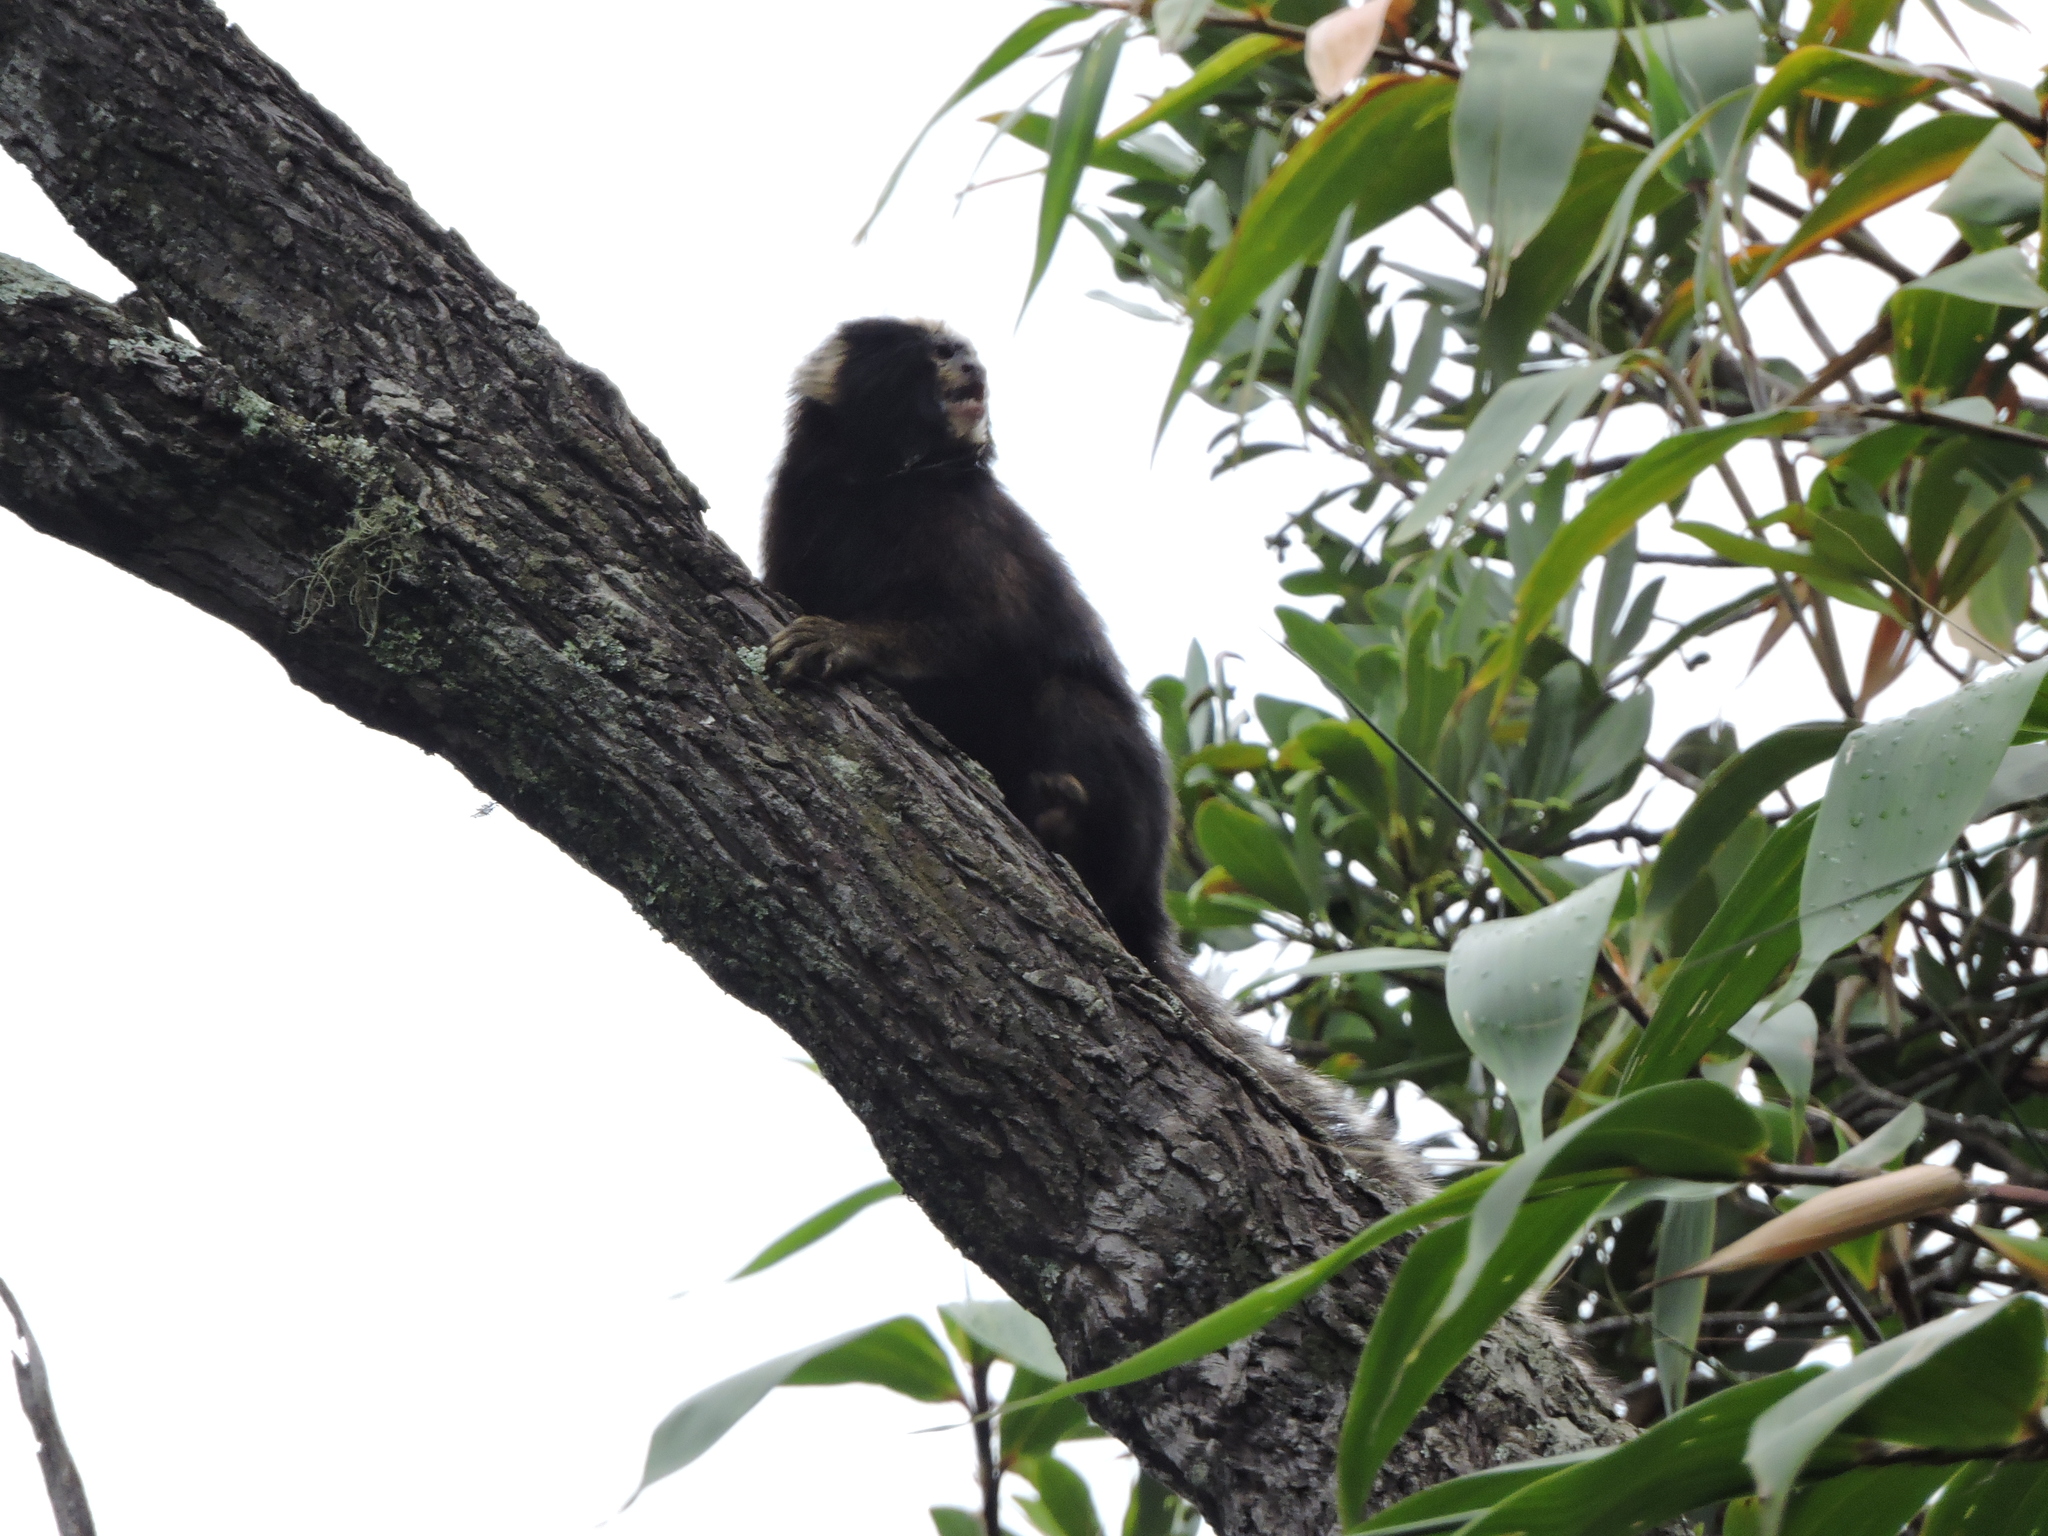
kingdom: Animalia
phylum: Chordata
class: Mammalia
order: Primates
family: Callitrichidae
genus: Callithrix
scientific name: Callithrix aurita
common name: Buffy-tufted marmoset
